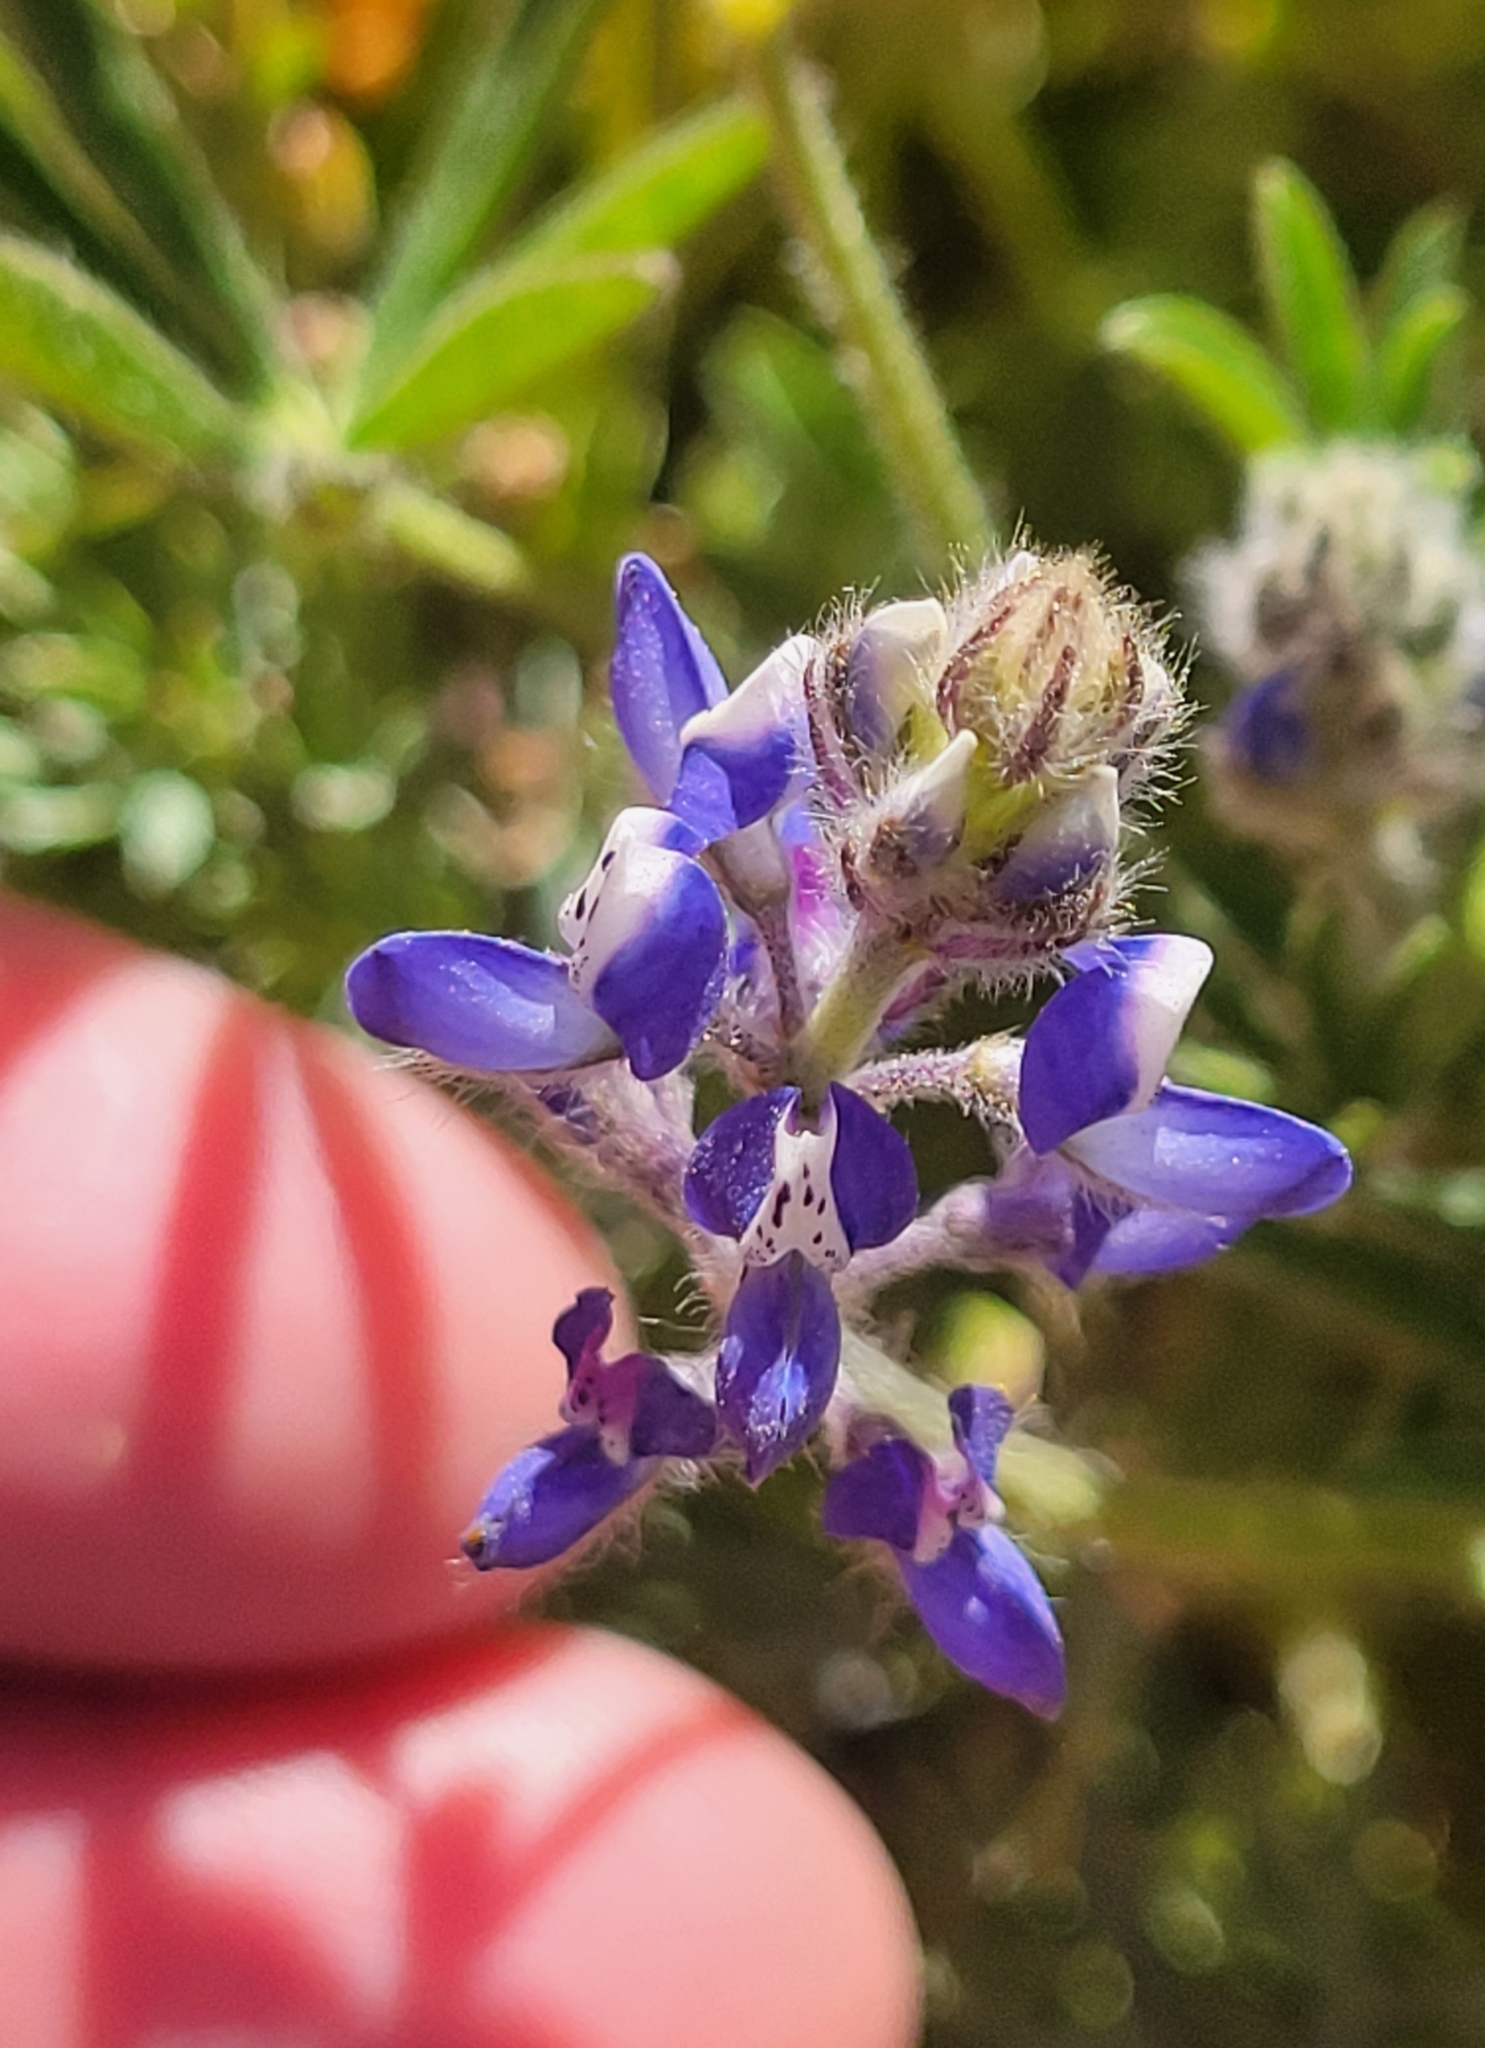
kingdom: Plantae
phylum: Tracheophyta
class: Magnoliopsida
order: Fabales
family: Fabaceae
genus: Lupinus
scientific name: Lupinus bicolor
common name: Miniature lupine
